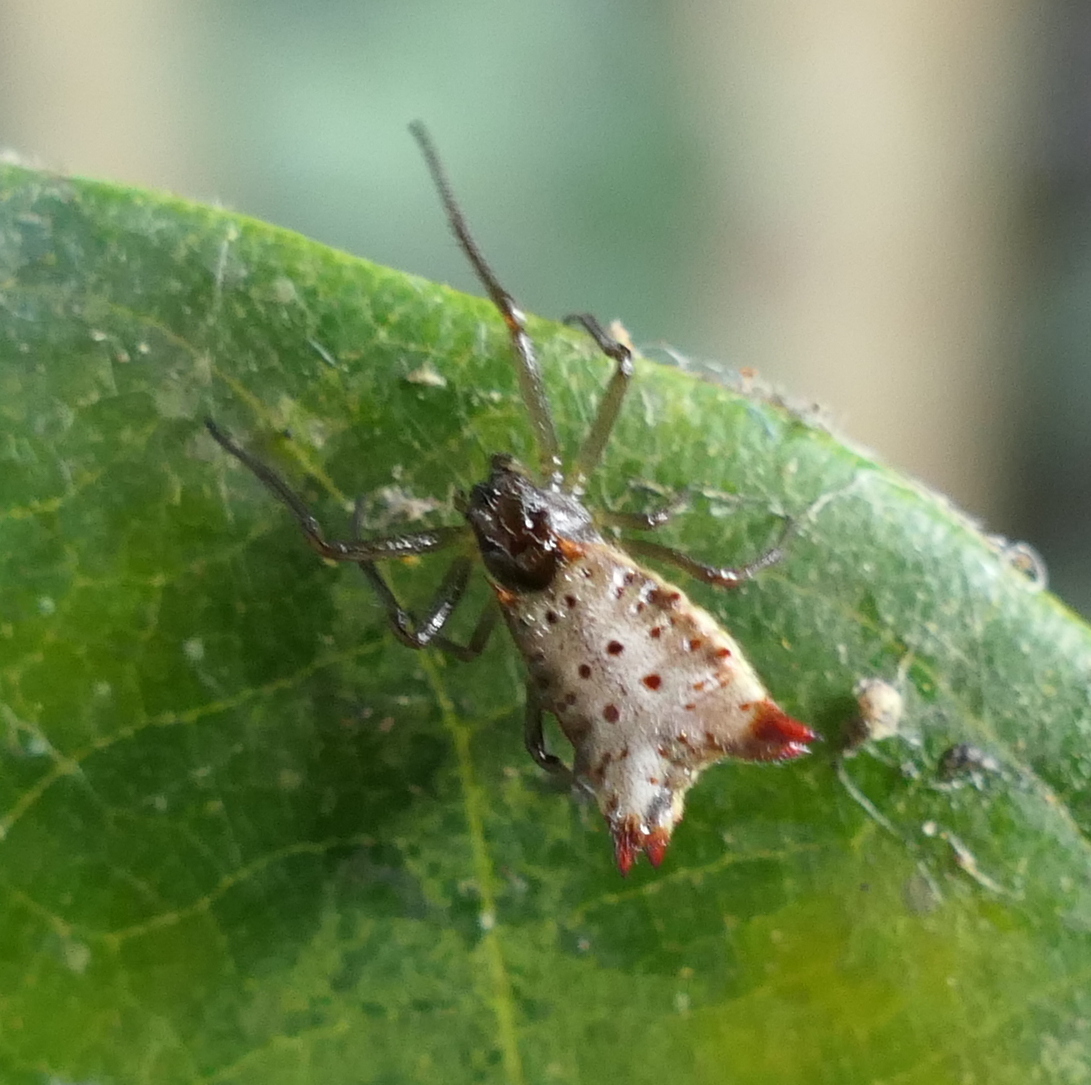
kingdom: Animalia
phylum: Arthropoda
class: Arachnida
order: Araneae
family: Araneidae
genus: Micrathena
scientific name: Micrathena plana
